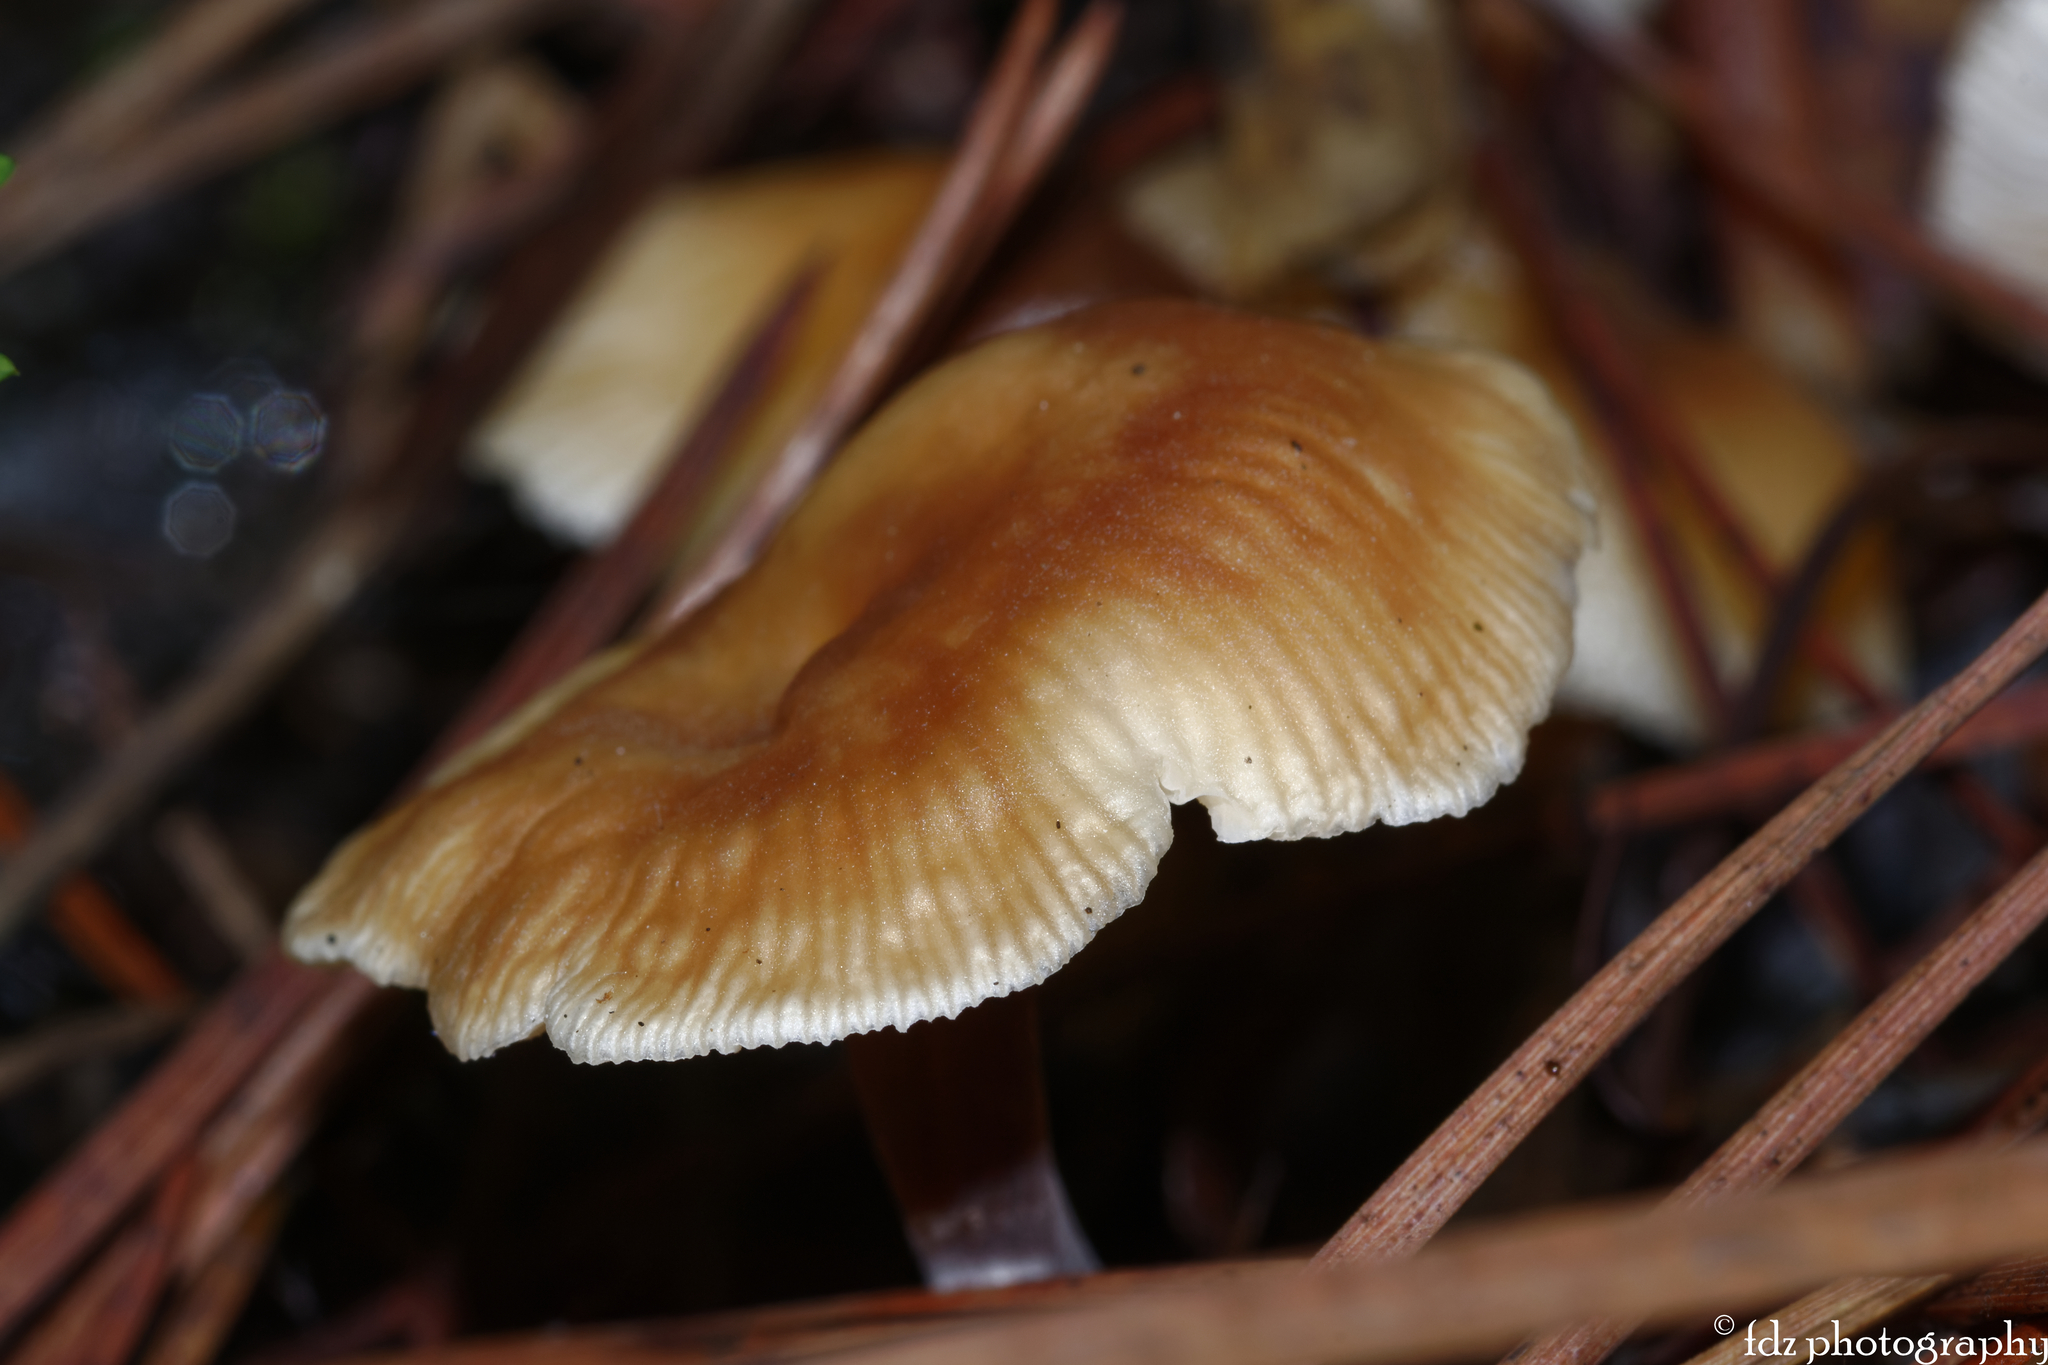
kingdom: Fungi
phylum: Basidiomycota
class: Agaricomycetes
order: Agaricales
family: Omphalotaceae
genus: Gymnopus
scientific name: Gymnopus erythropus
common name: Redleg toughshank
